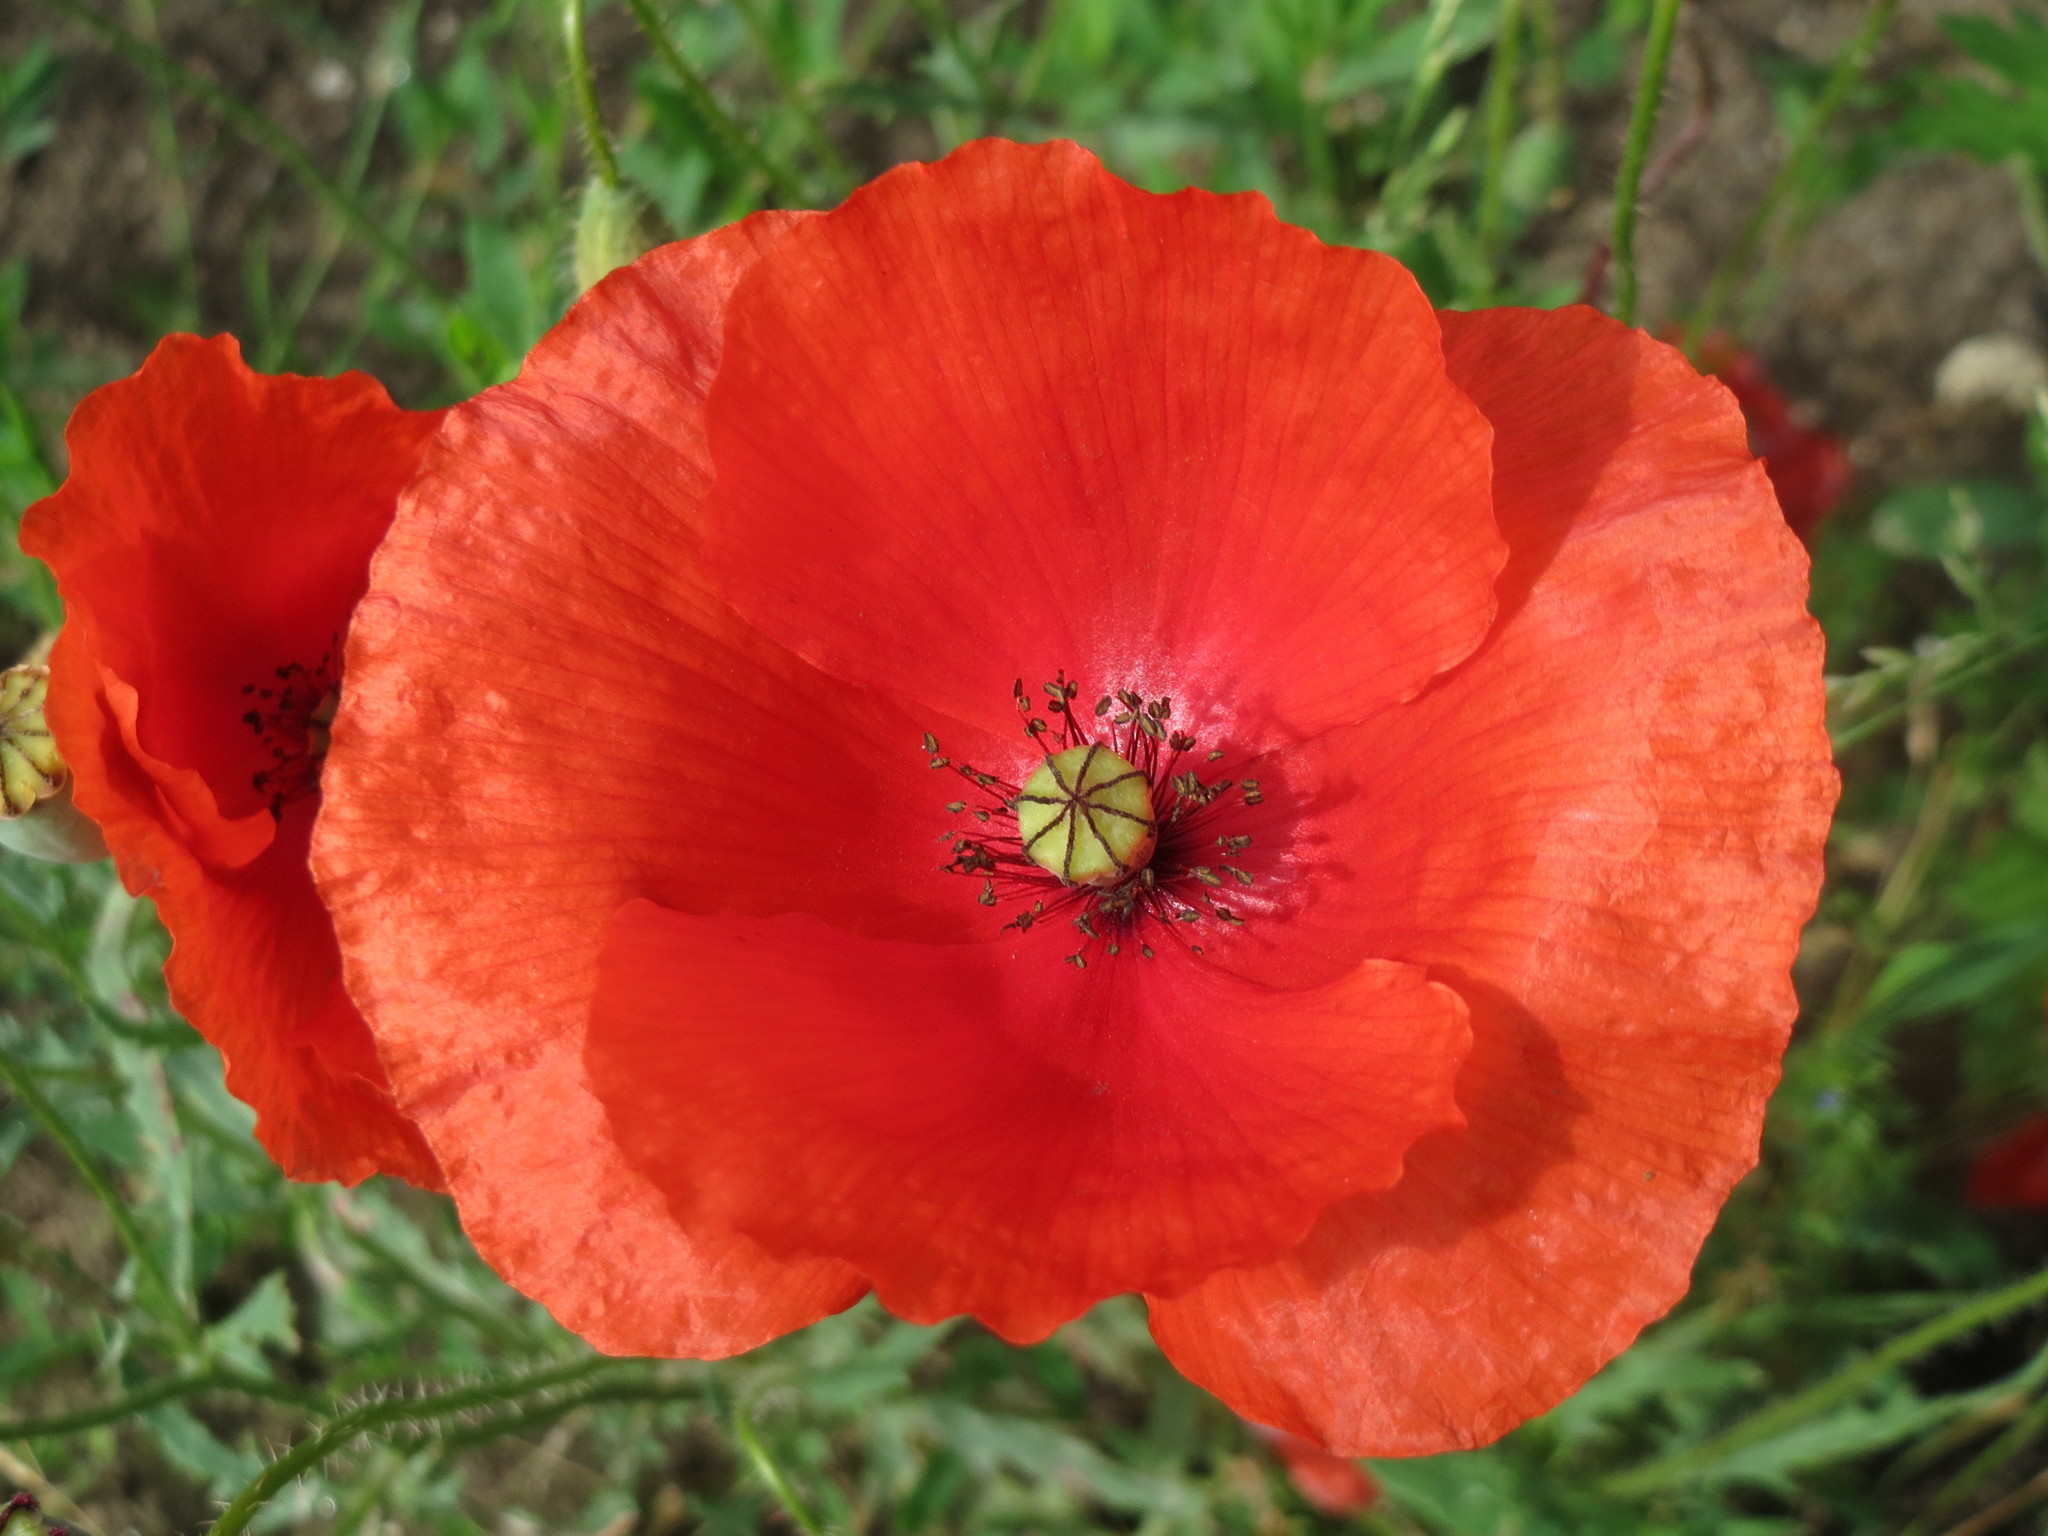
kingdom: Plantae
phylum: Tracheophyta
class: Magnoliopsida
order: Ranunculales
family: Papaveraceae
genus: Papaver
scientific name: Papaver rhoeas
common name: Corn poppy
